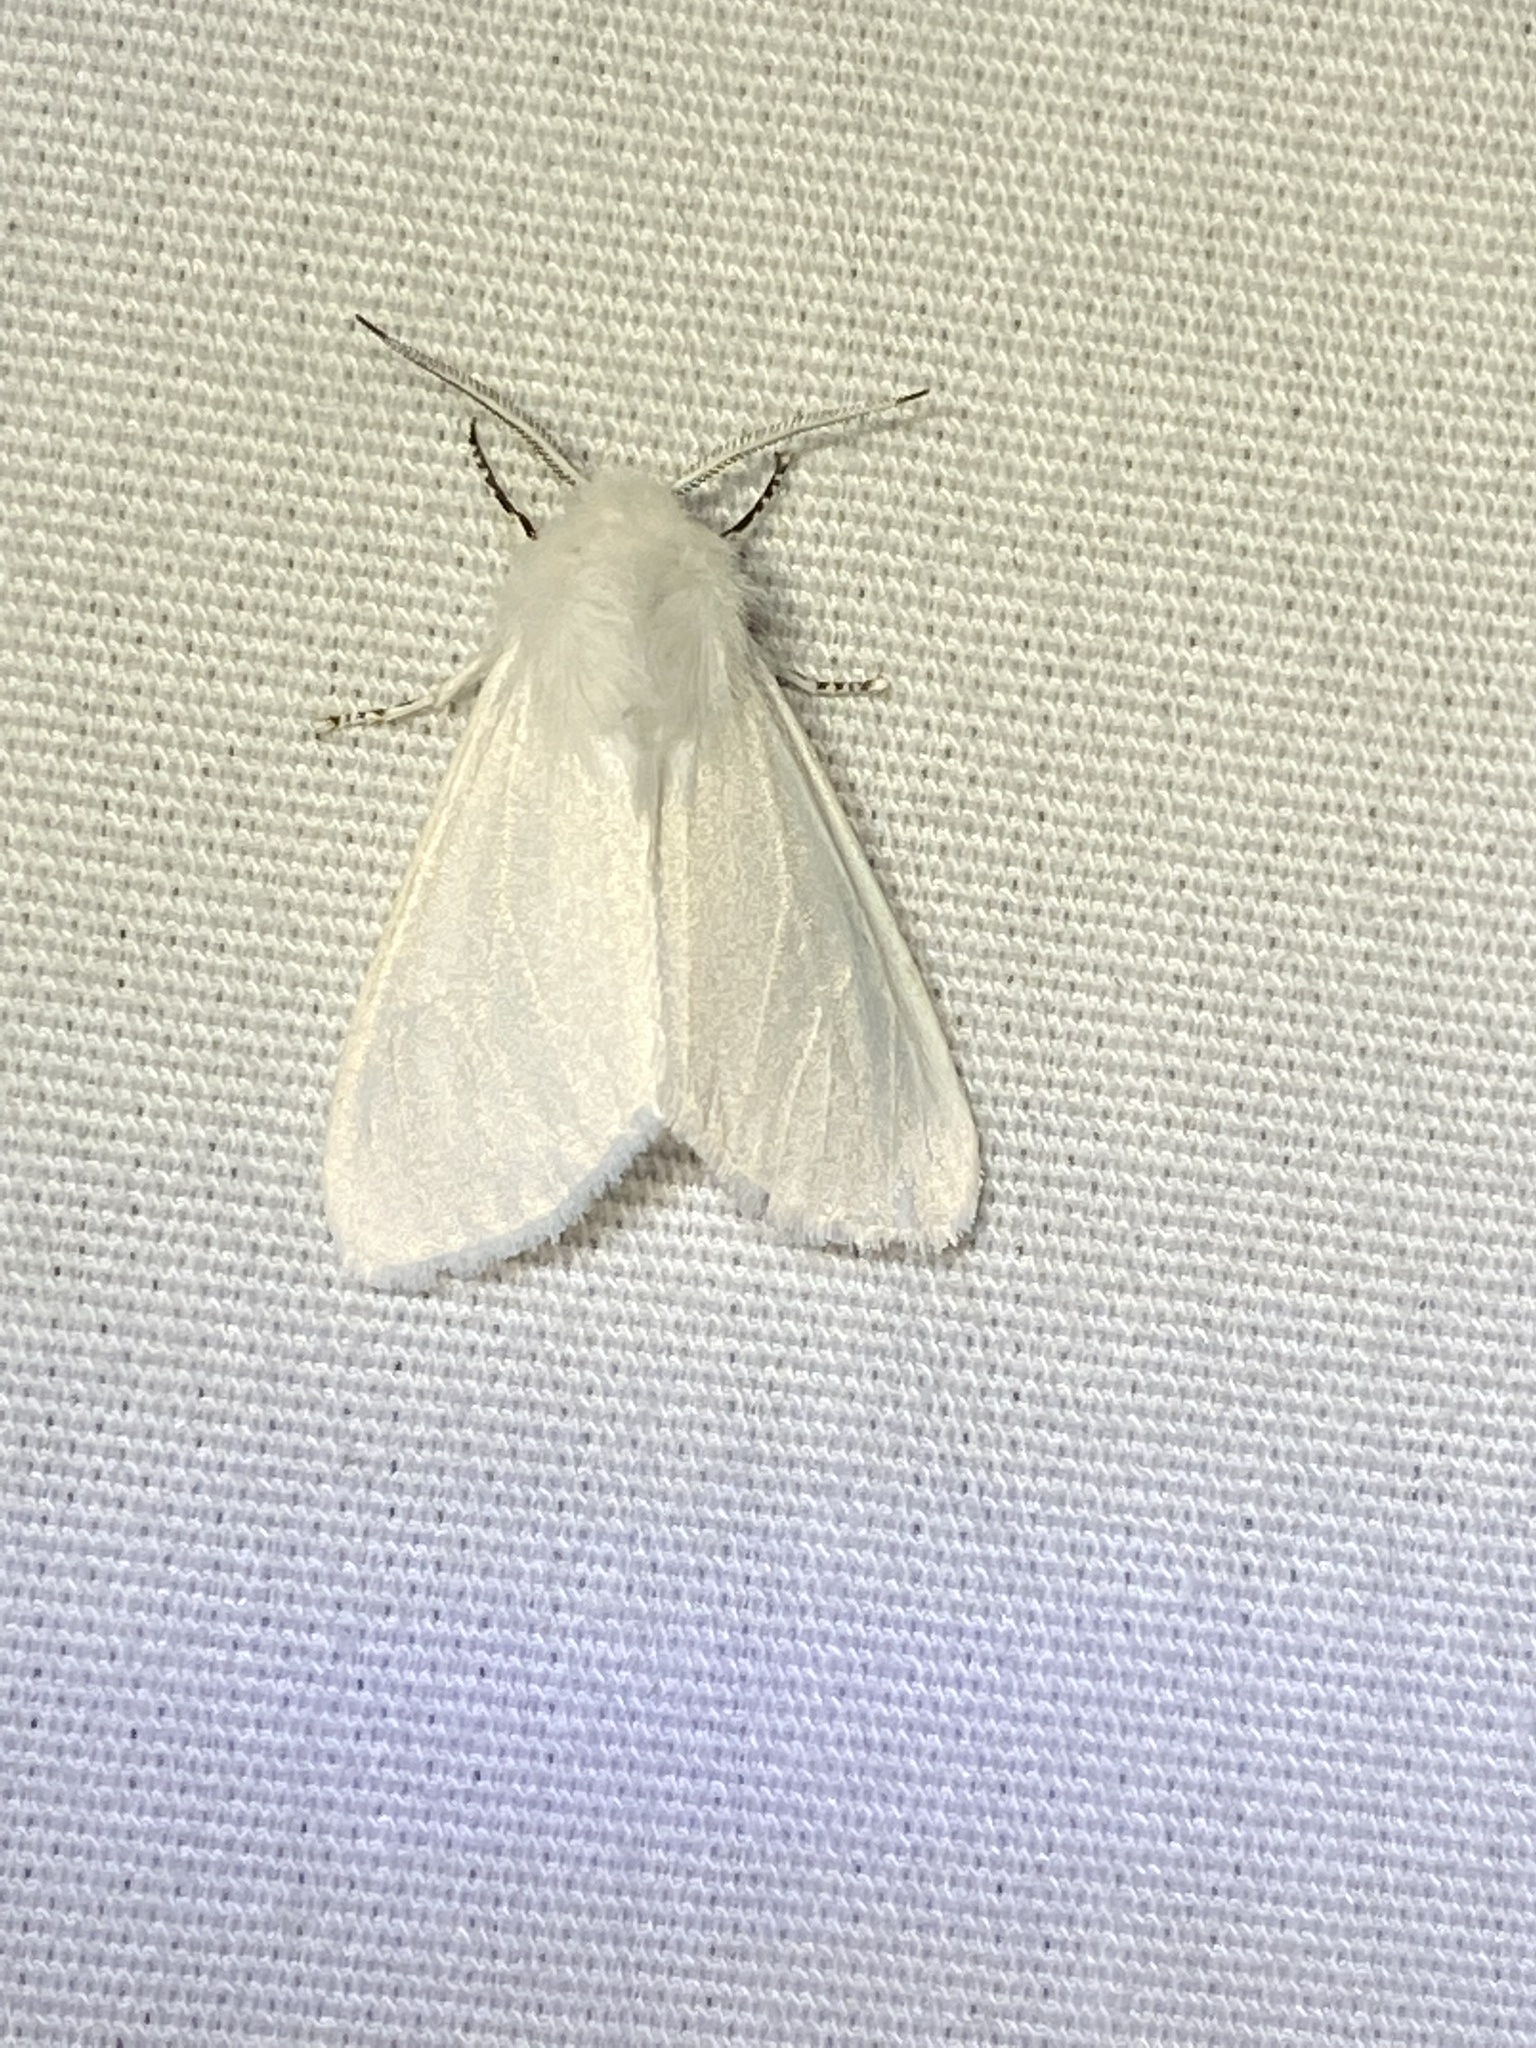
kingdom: Animalia
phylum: Arthropoda
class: Insecta
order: Lepidoptera
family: Erebidae
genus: Hyphantria
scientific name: Hyphantria cunea
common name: American white moth
